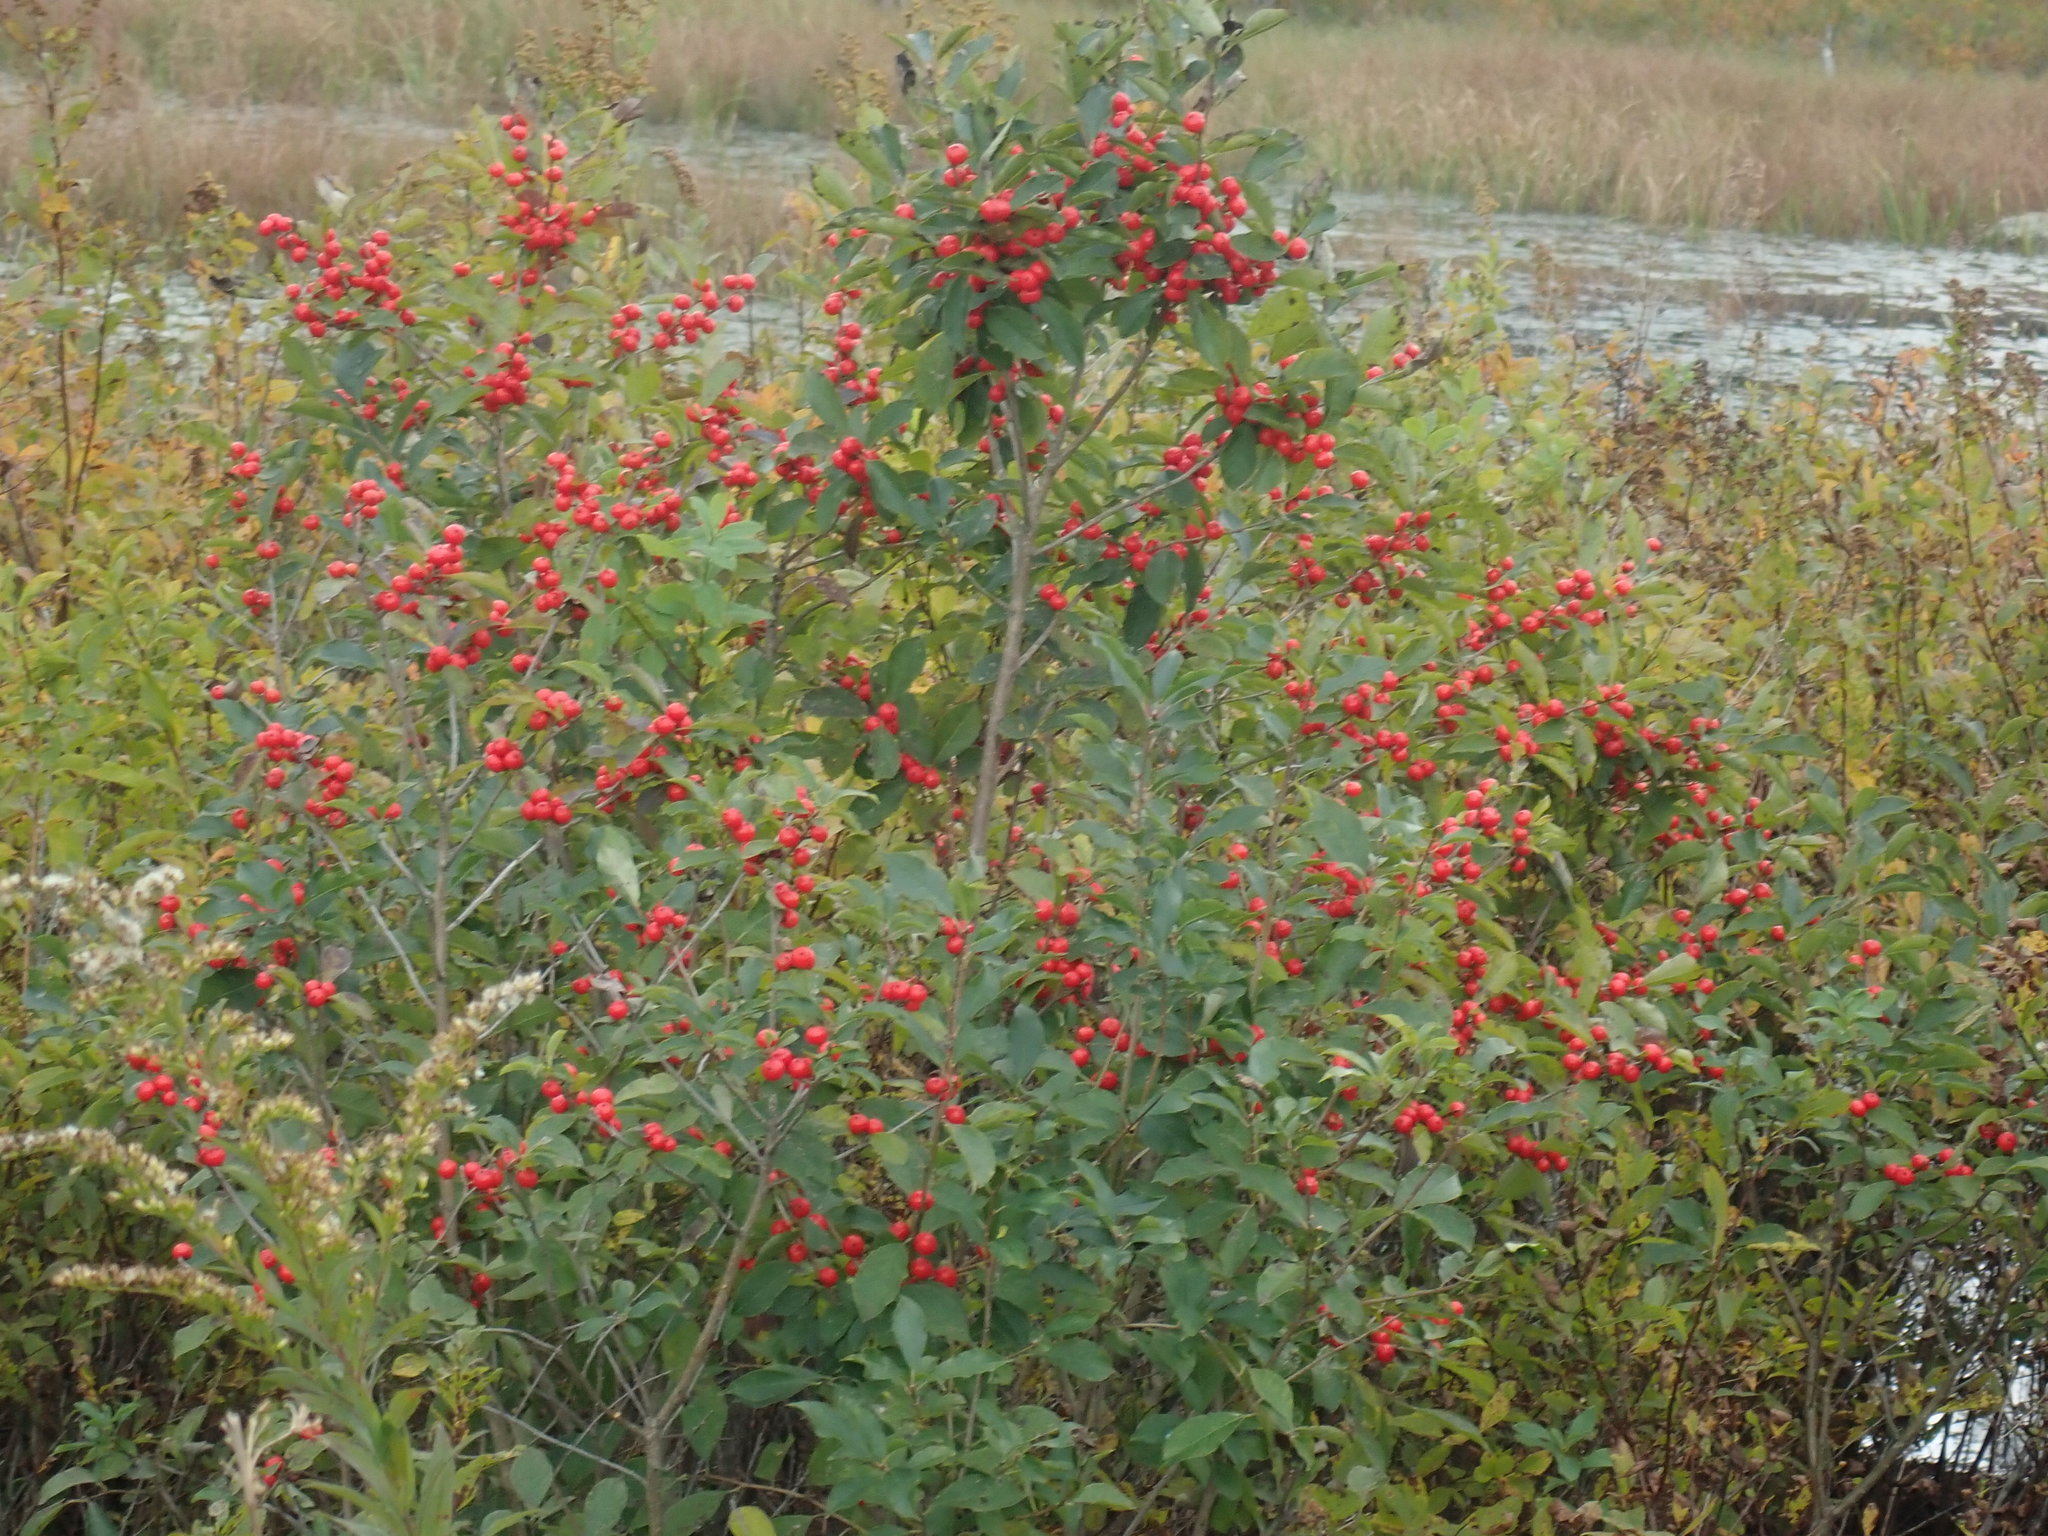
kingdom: Plantae
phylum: Tracheophyta
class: Magnoliopsida
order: Aquifoliales
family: Aquifoliaceae
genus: Ilex
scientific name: Ilex verticillata
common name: Virginia winterberry
